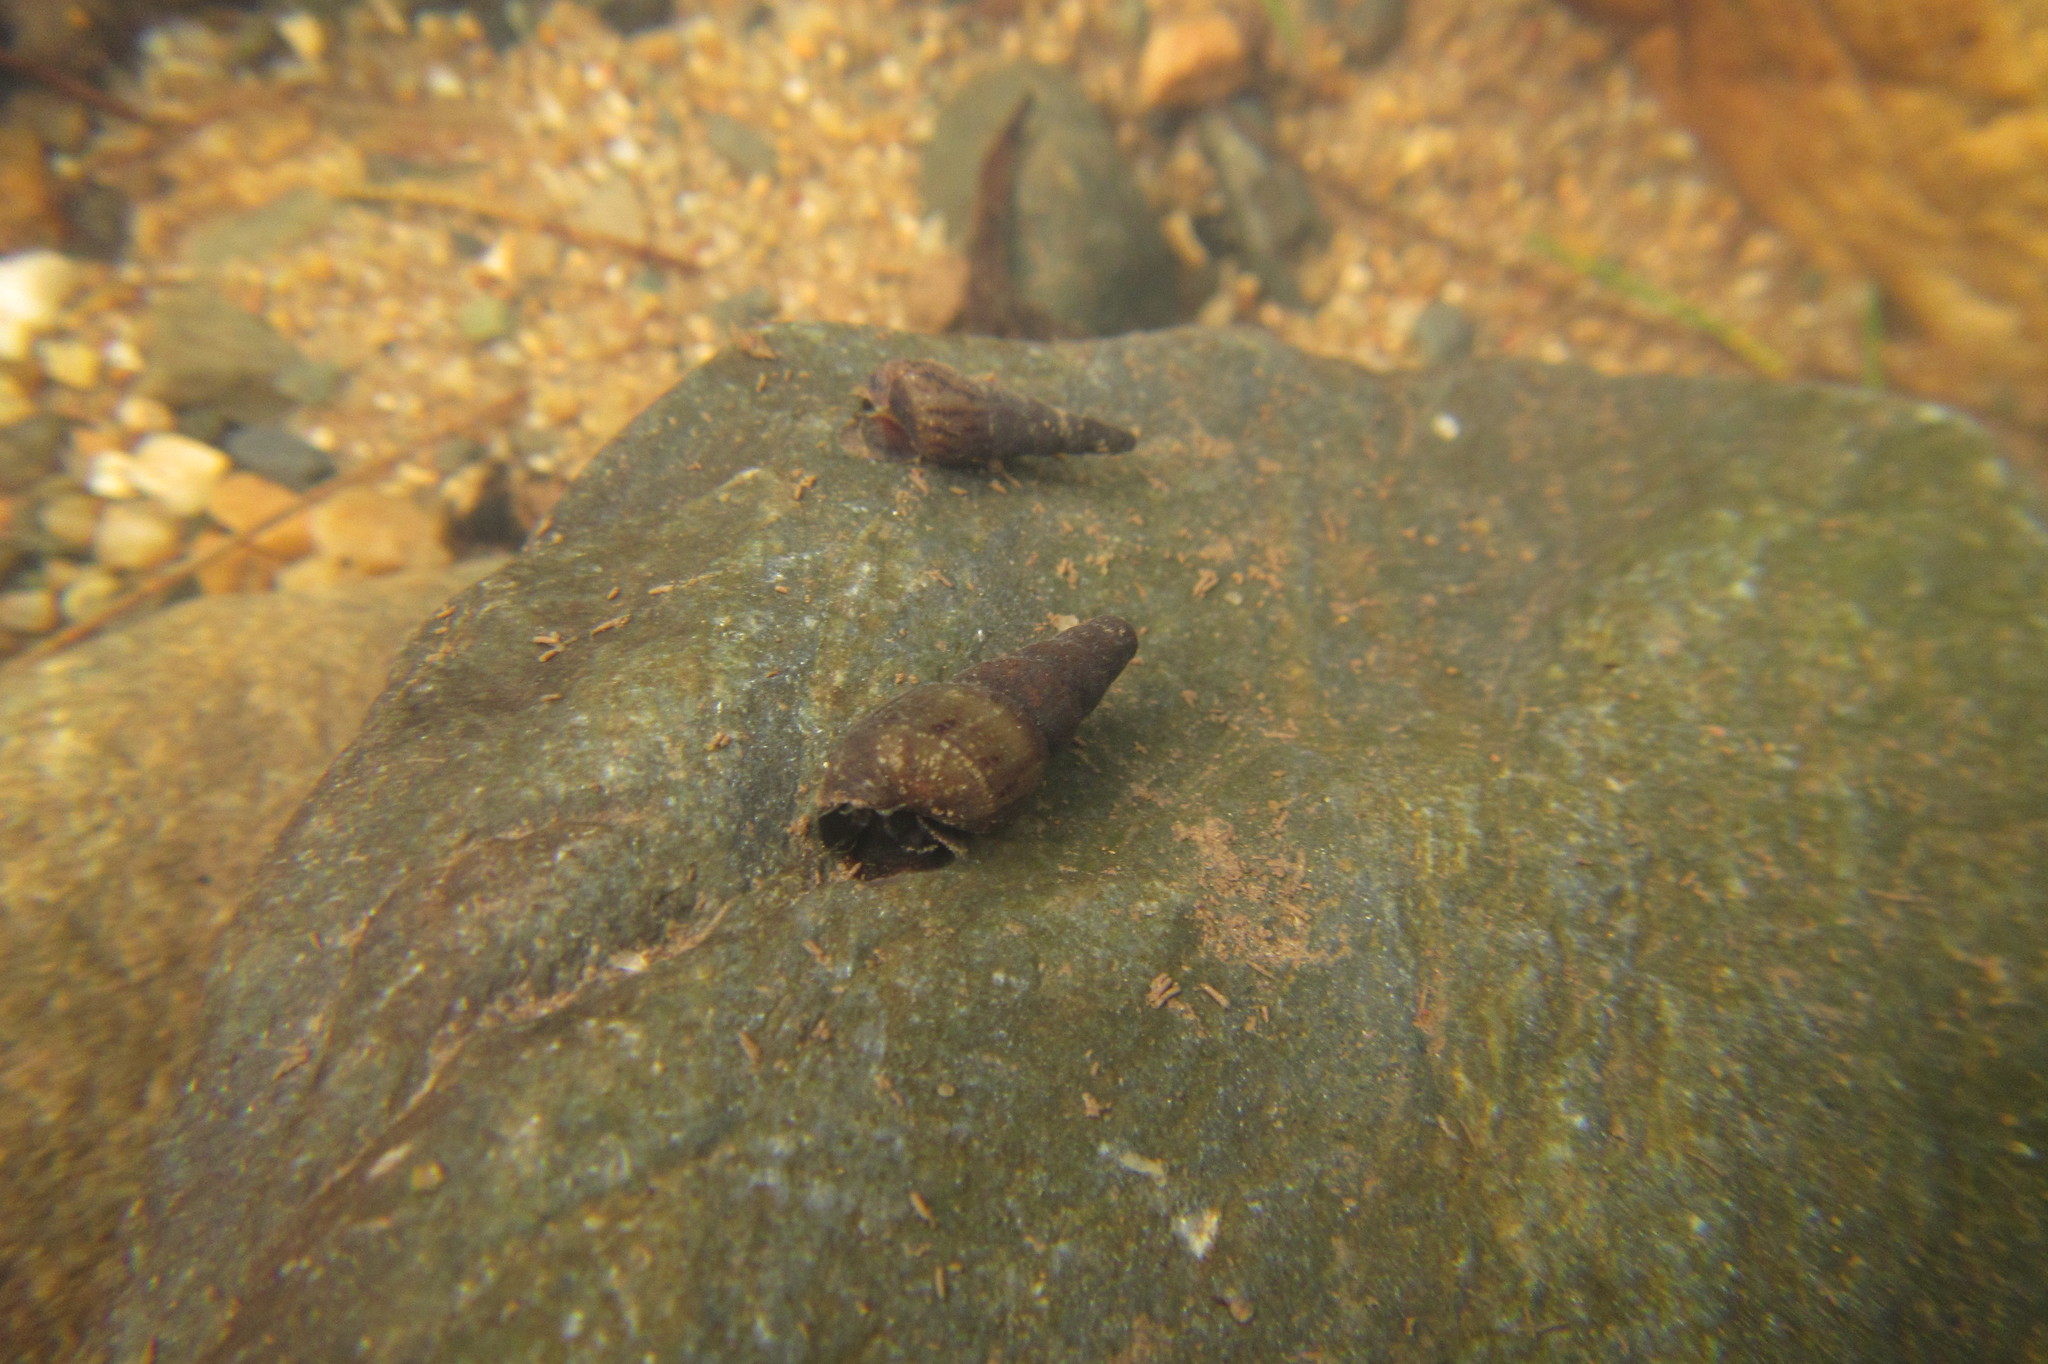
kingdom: Animalia
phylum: Mollusca
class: Gastropoda
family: Thiaridae
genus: Melanoides
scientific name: Melanoides tuberculata
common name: Red-rim melania
